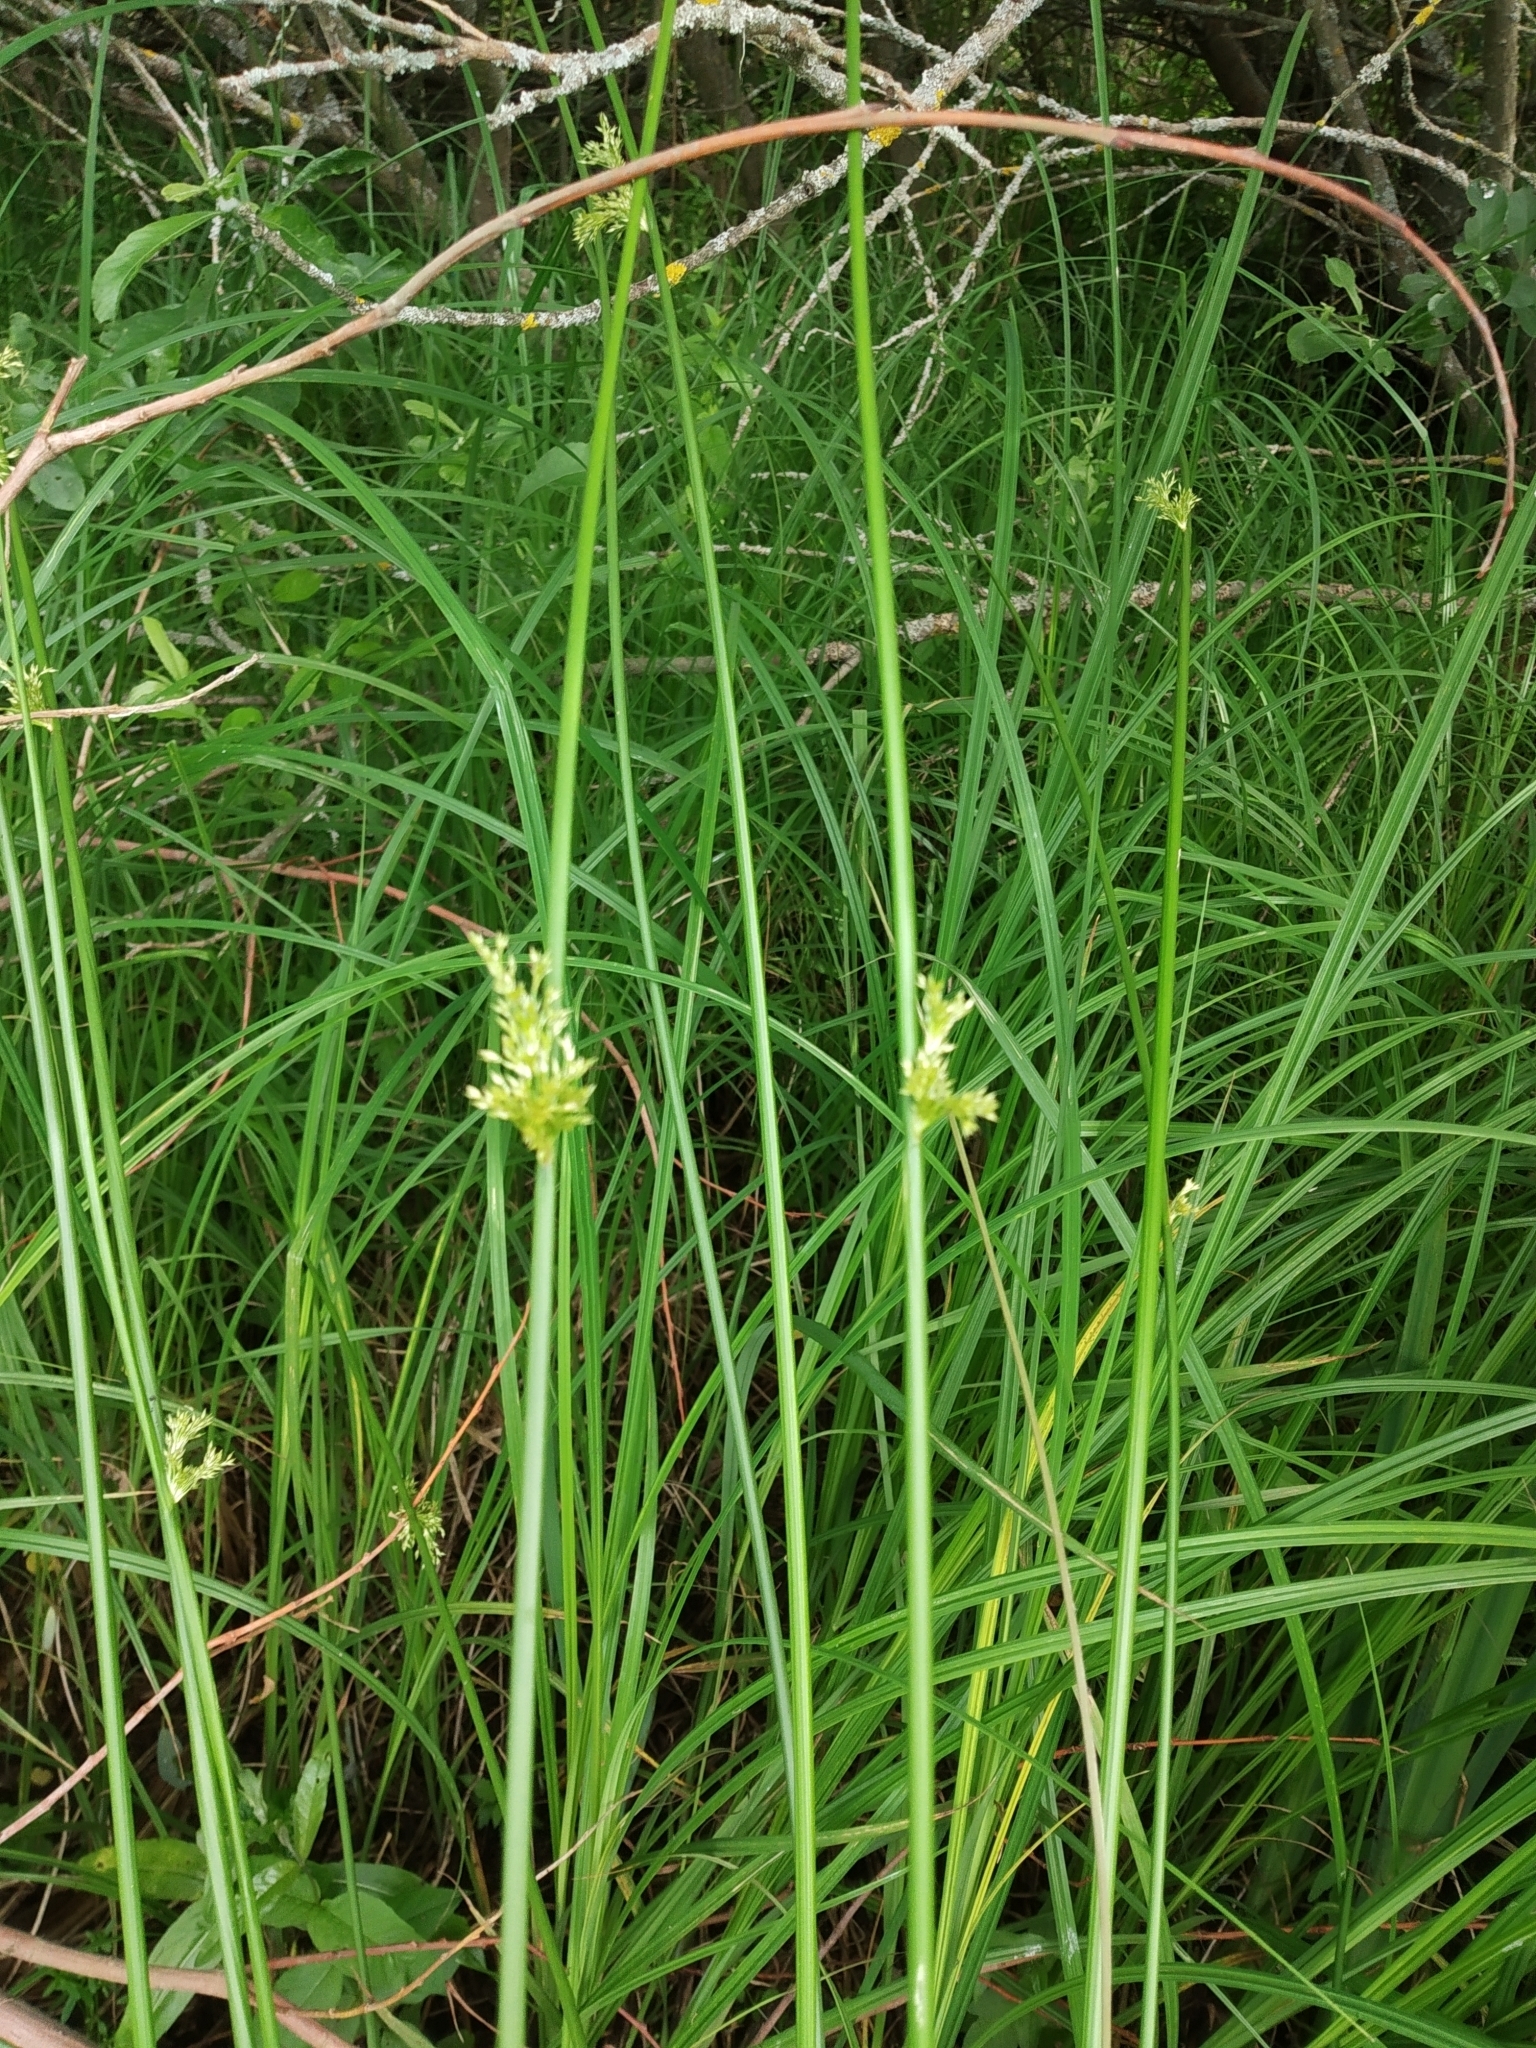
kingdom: Plantae
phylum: Tracheophyta
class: Liliopsida
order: Poales
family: Juncaceae
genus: Juncus
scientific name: Juncus effusus
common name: Soft rush
